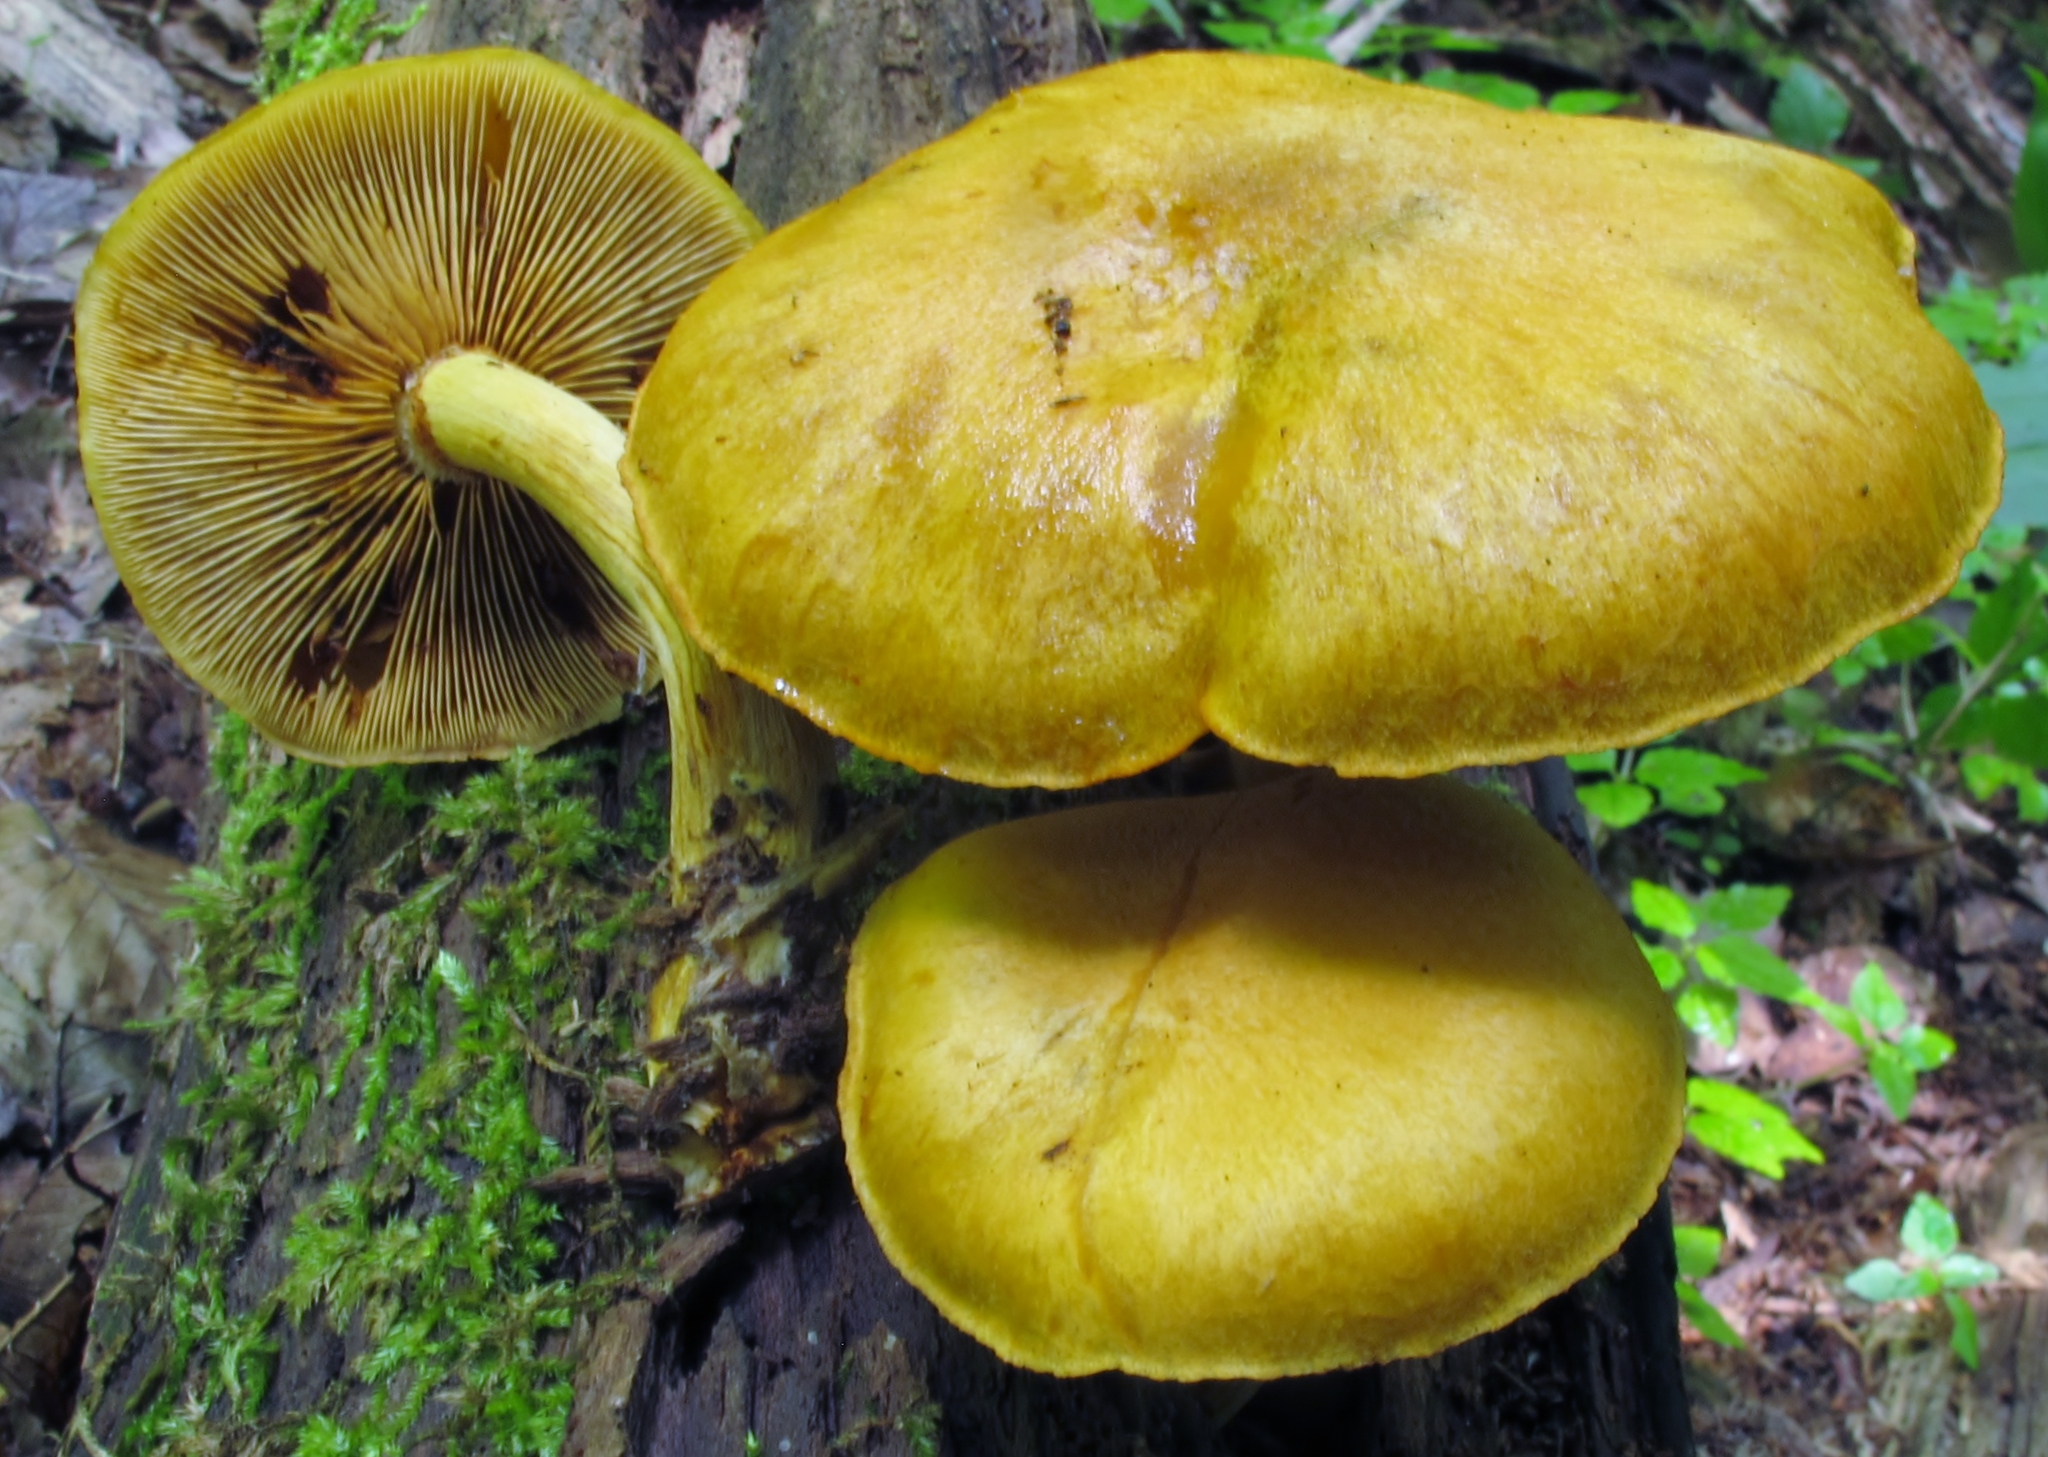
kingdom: Fungi
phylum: Basidiomycota
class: Agaricomycetes
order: Agaricales
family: Hymenogastraceae
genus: Gymnopilus
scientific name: Gymnopilus luteus
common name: Yellow gymnopilus
